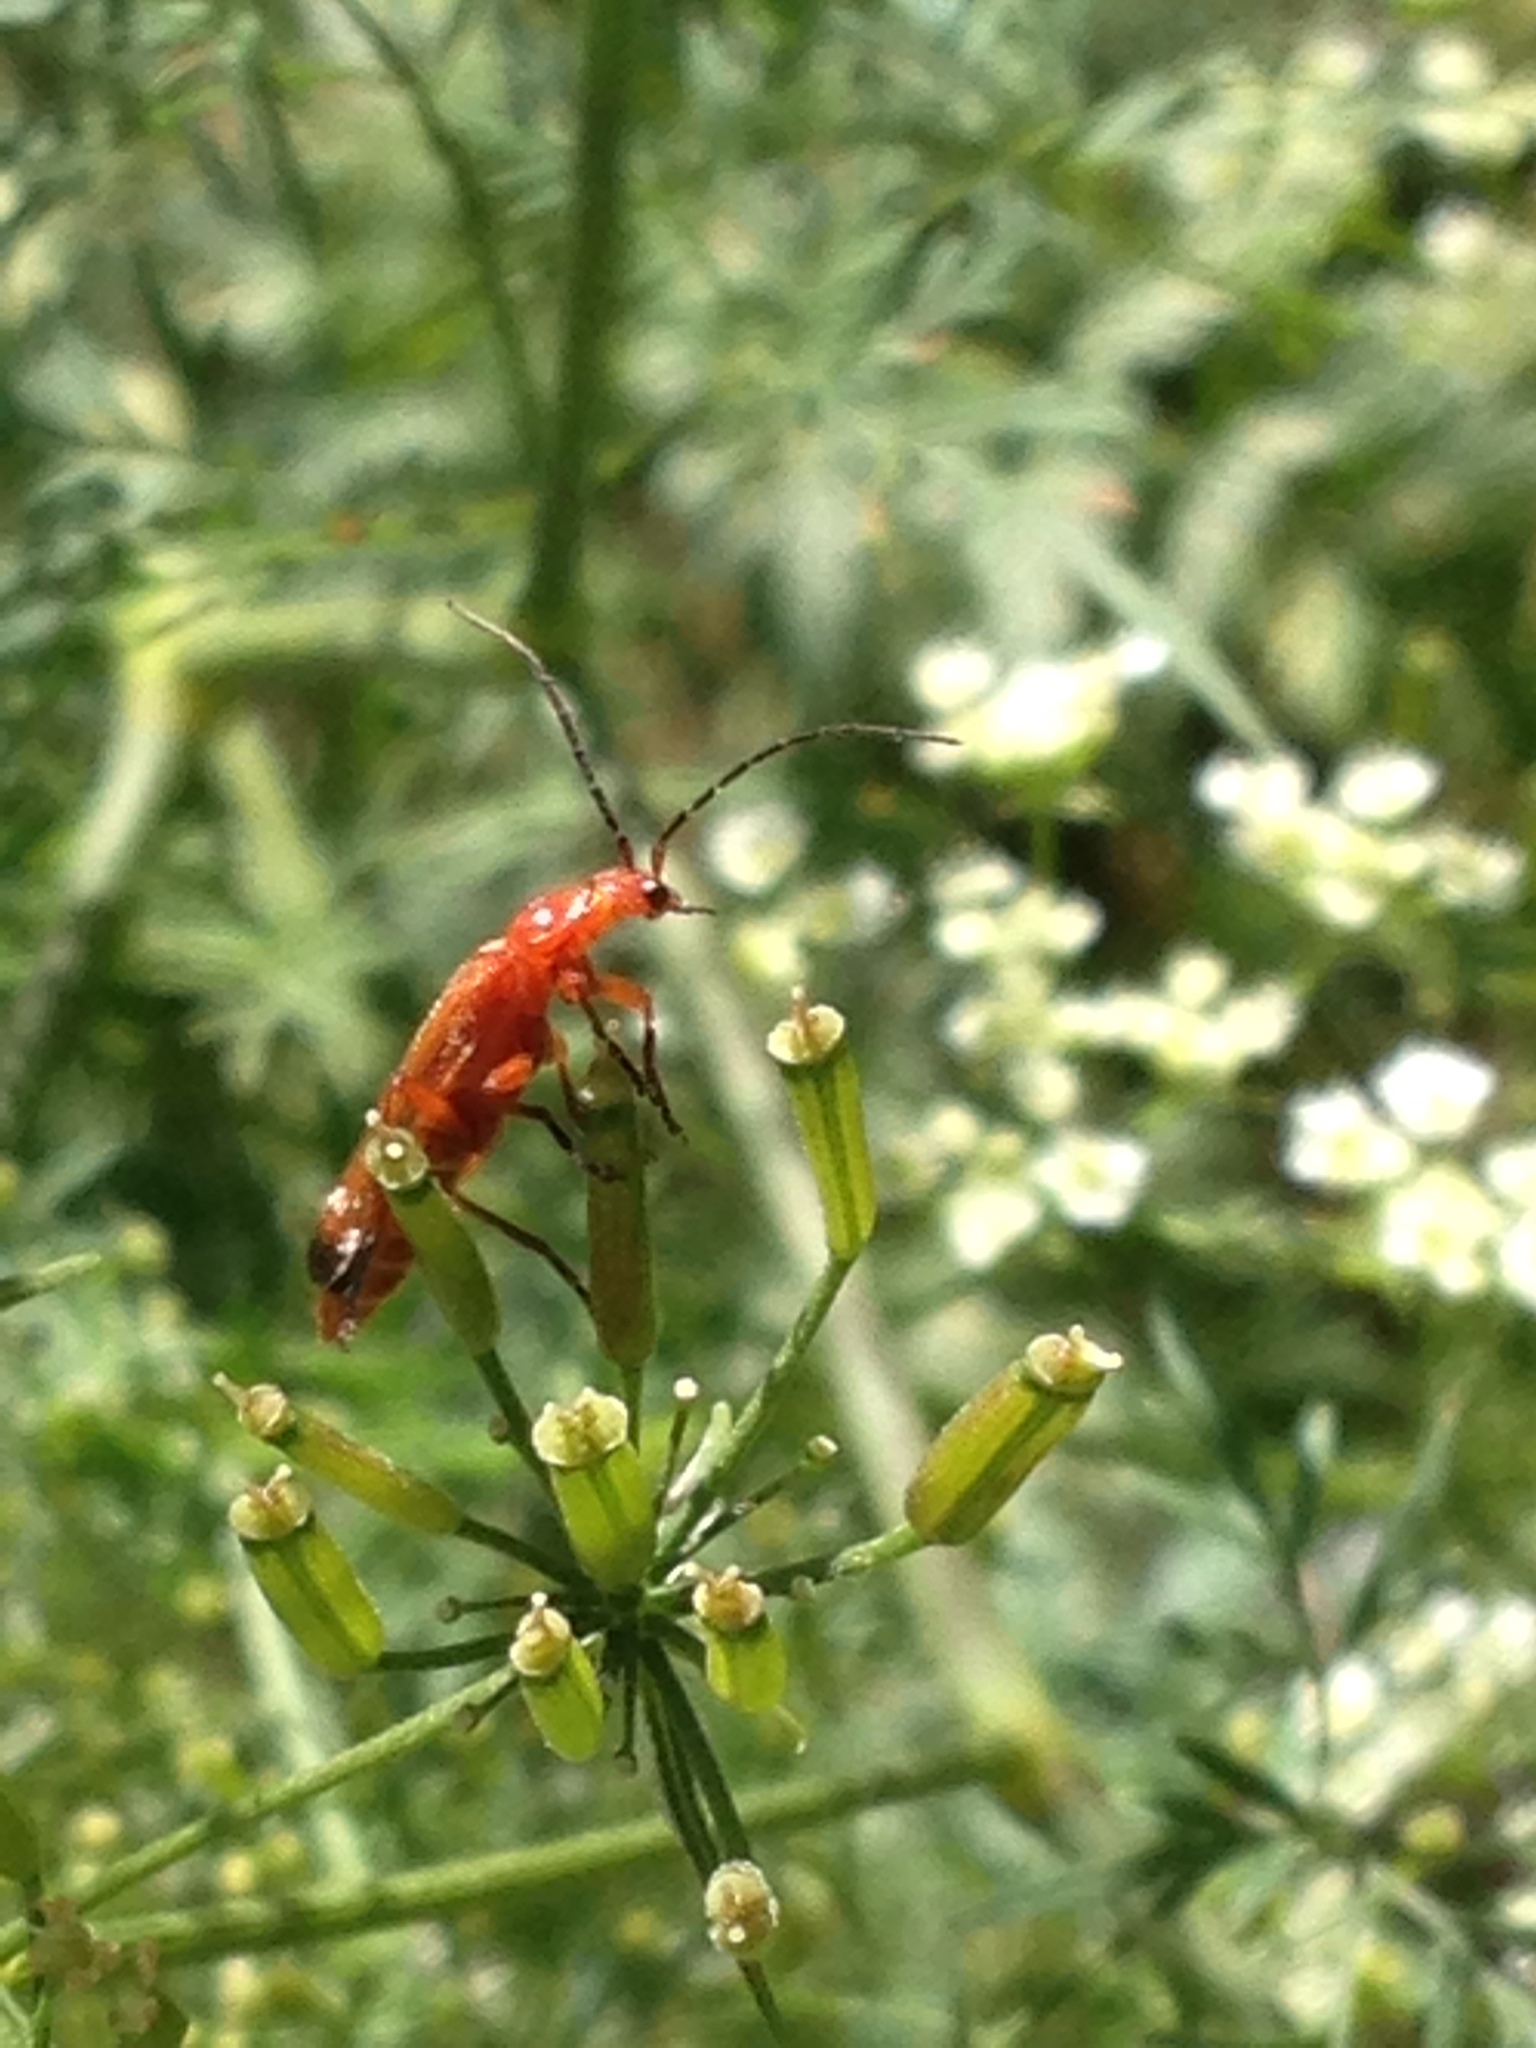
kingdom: Animalia
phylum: Arthropoda
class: Insecta
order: Coleoptera
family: Cantharidae
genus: Rhagonycha
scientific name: Rhagonycha fulva
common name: Common red soldier beetle
